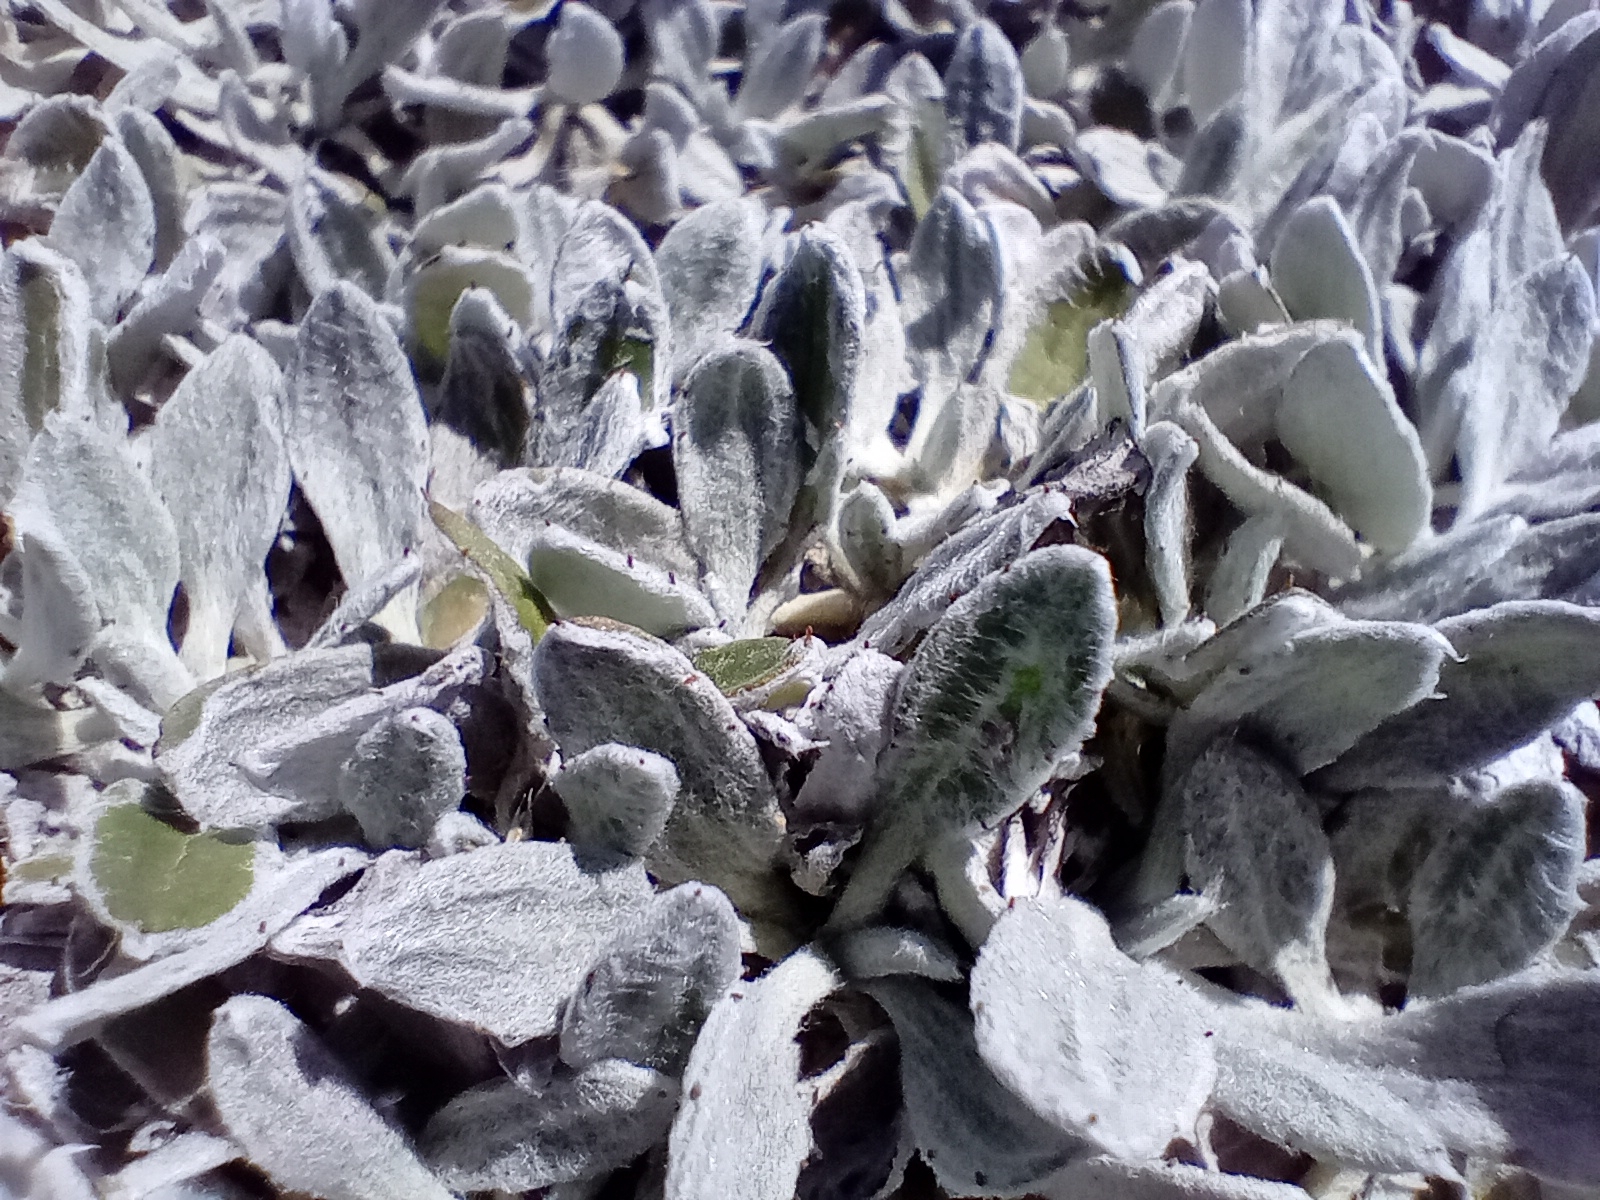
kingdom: Plantae
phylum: Tracheophyta
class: Magnoliopsida
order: Asterales
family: Asteraceae
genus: Celmisia
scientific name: Celmisia allanii
